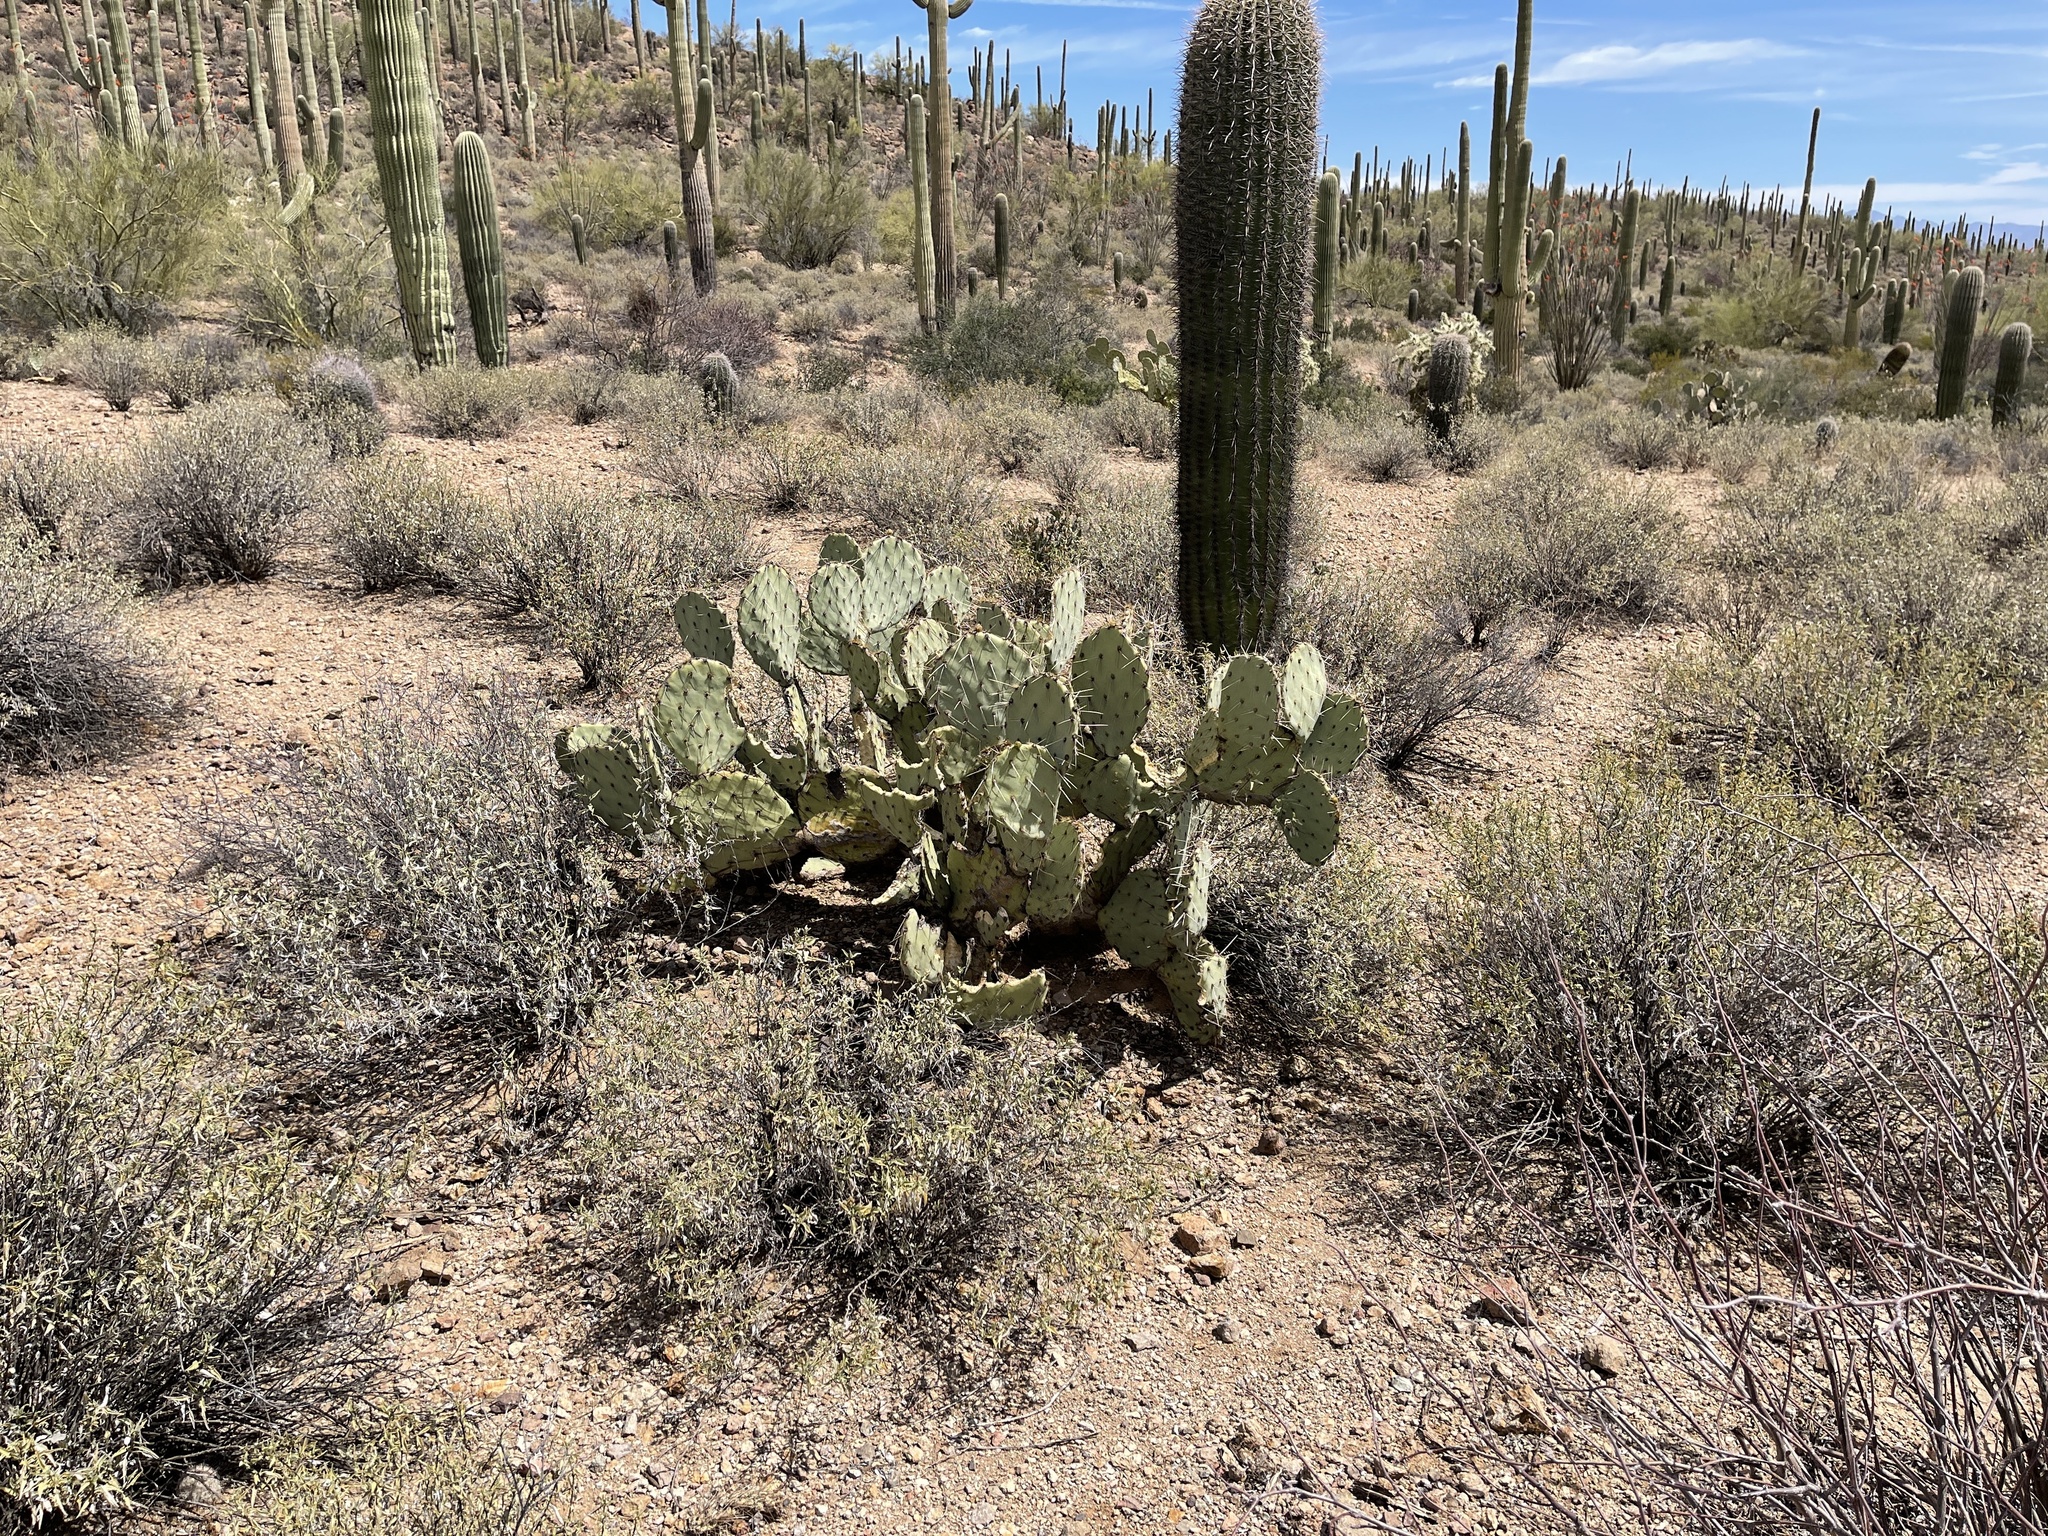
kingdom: Plantae
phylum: Tracheophyta
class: Magnoliopsida
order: Caryophyllales
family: Cactaceae
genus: Opuntia
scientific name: Opuntia engelmannii
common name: Cactus-apple
